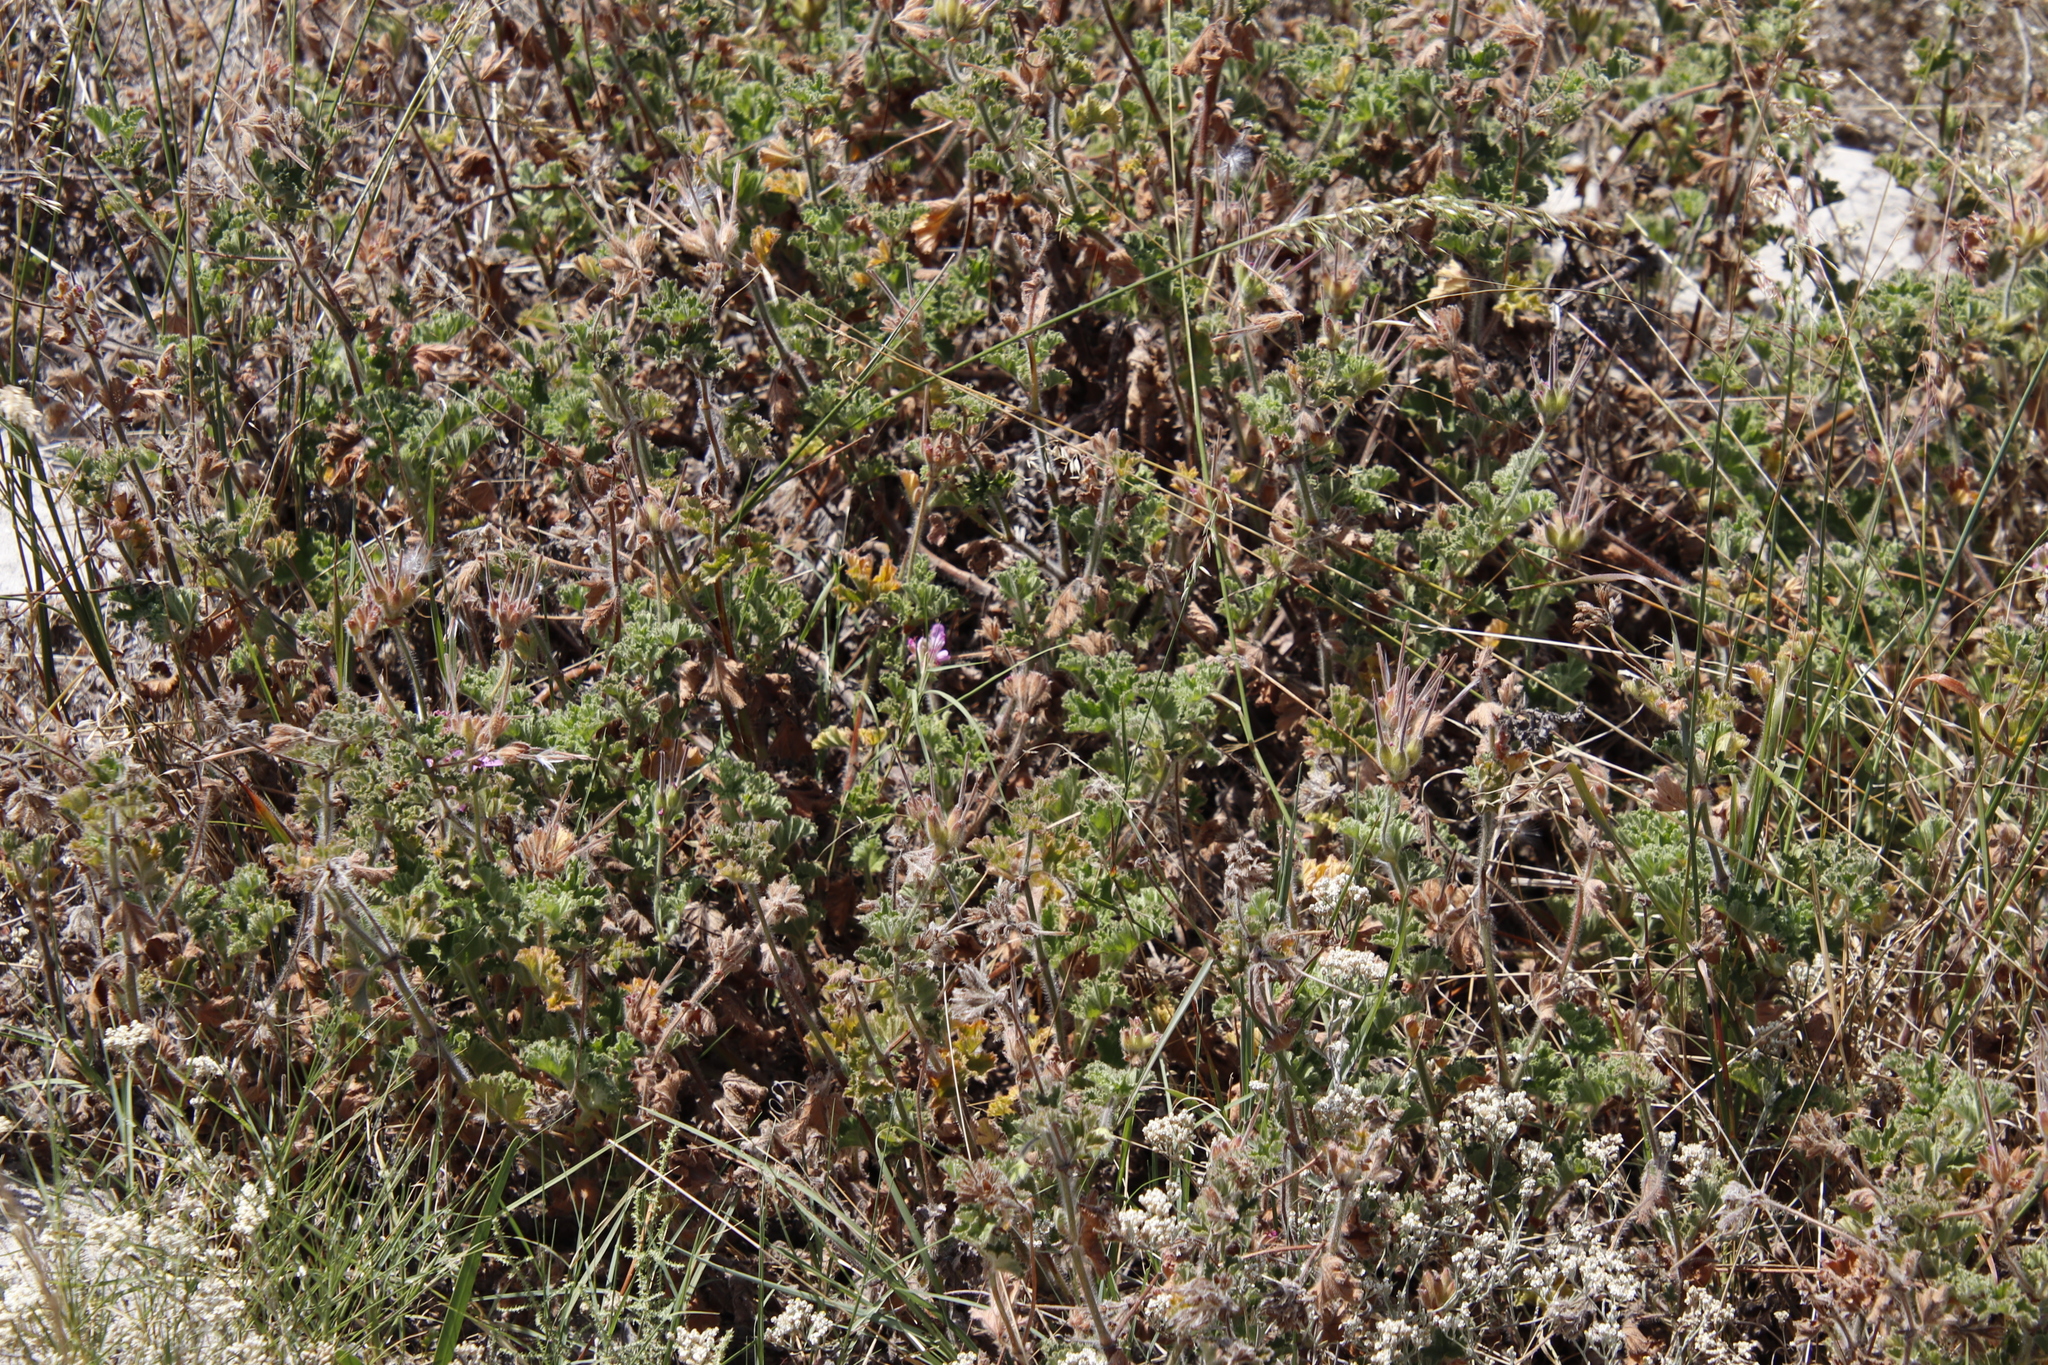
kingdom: Plantae
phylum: Tracheophyta
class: Magnoliopsida
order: Geraniales
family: Geraniaceae
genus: Pelargonium
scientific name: Pelargonium capitatum
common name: Rose scented geranium
